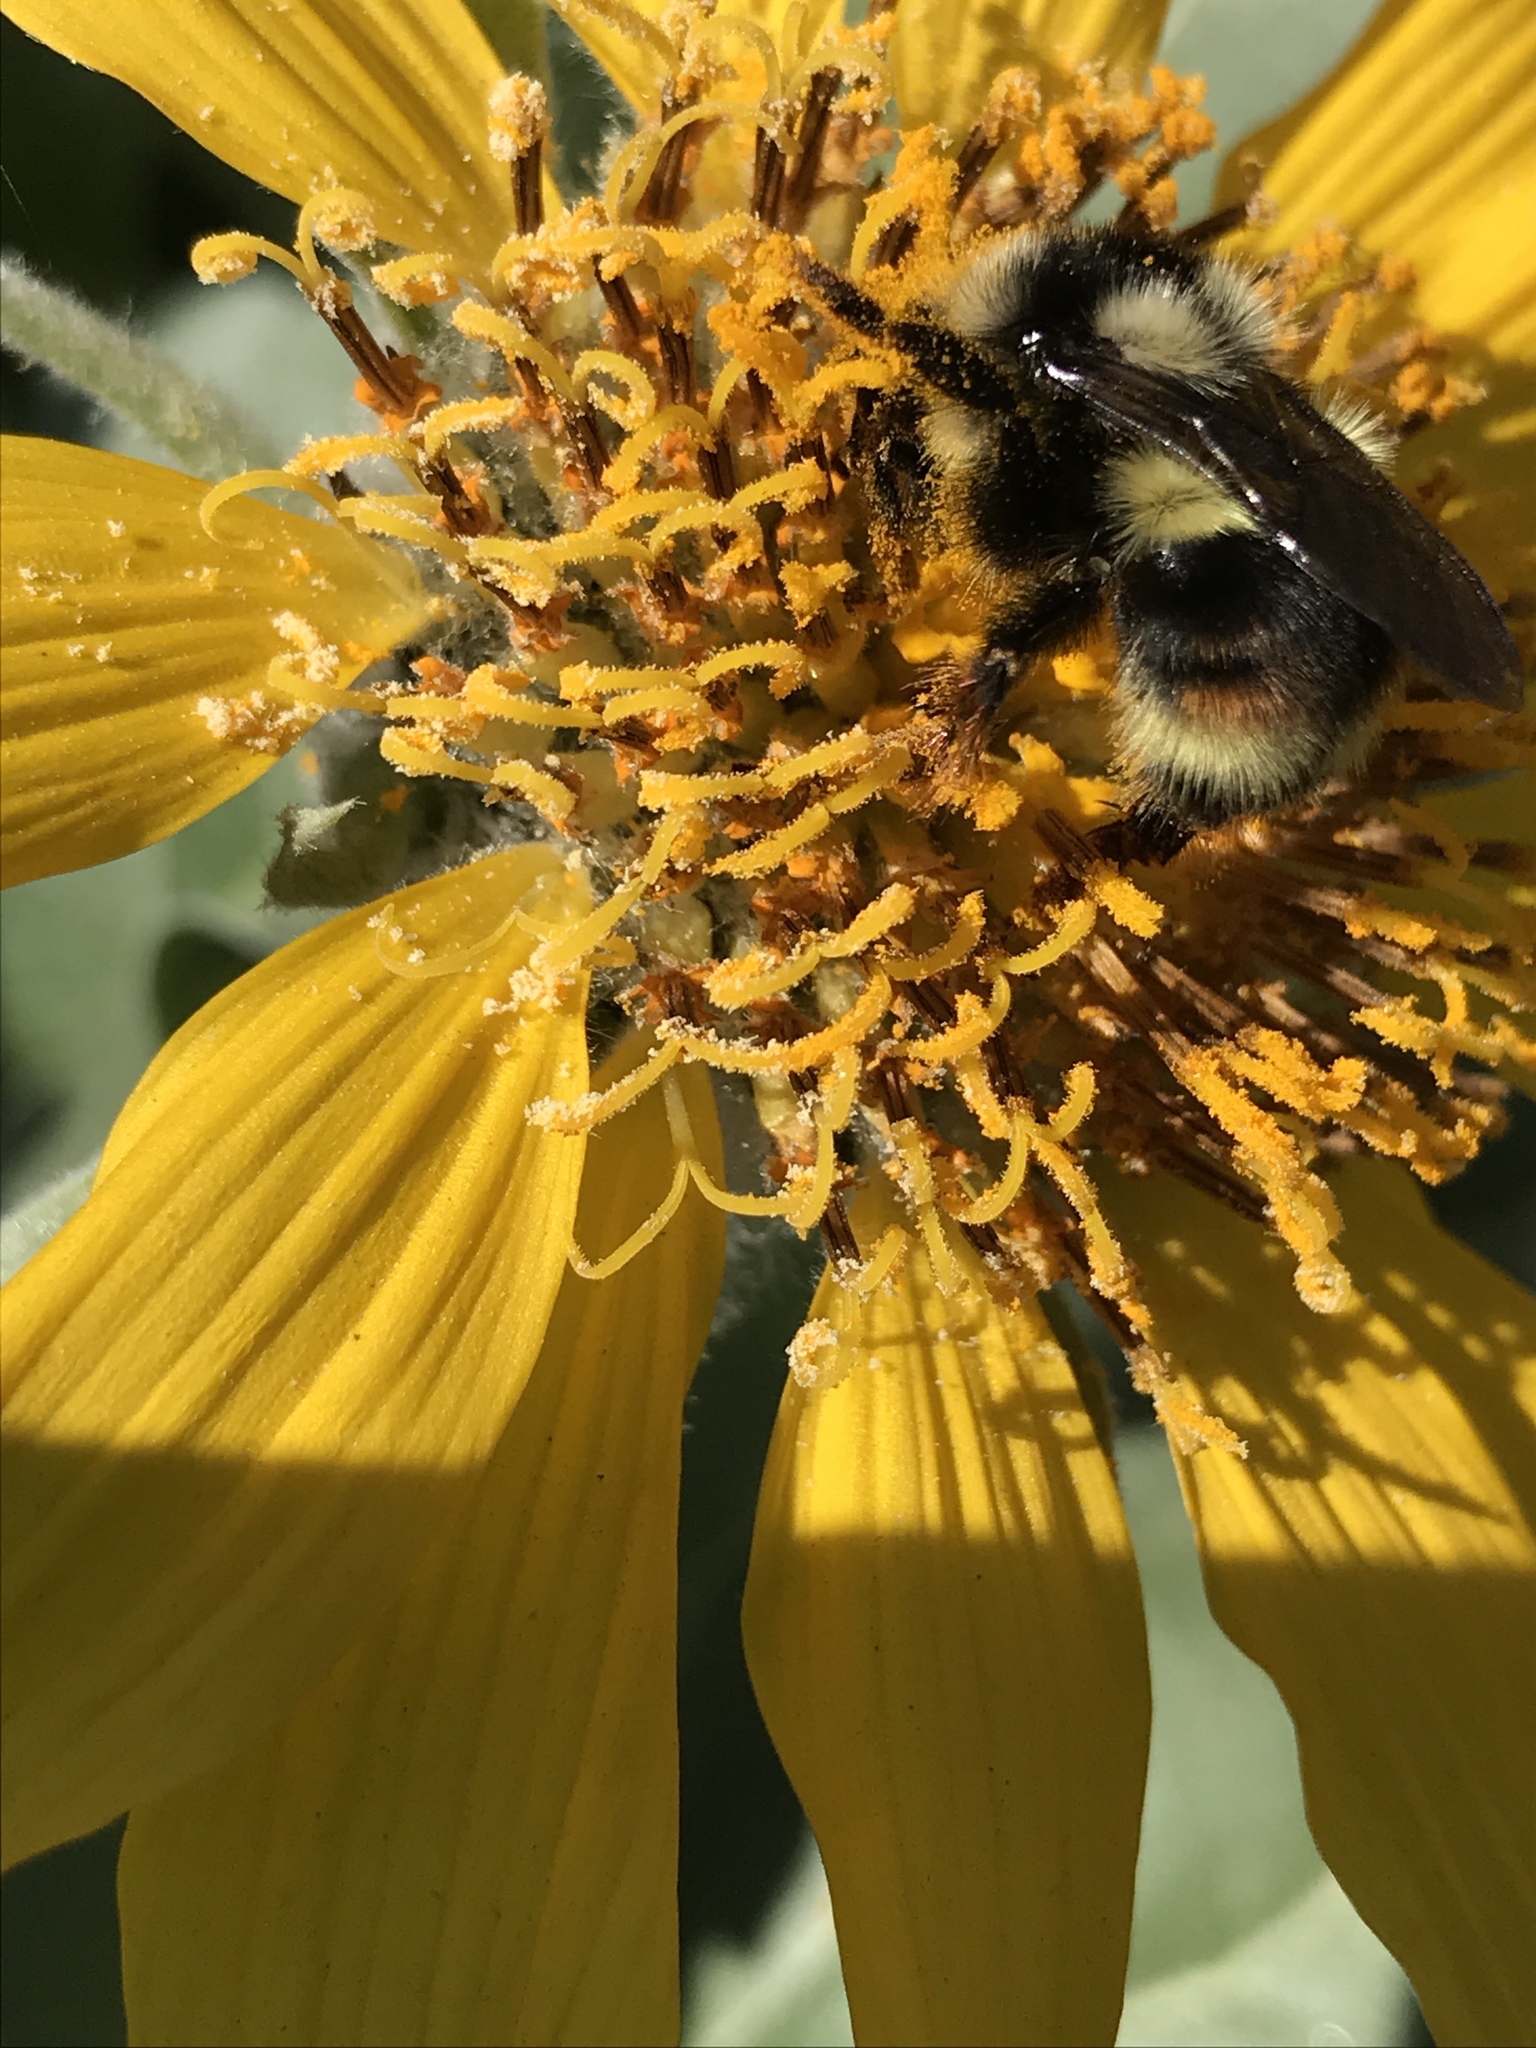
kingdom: Animalia
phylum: Arthropoda
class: Insecta
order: Hymenoptera
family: Apidae
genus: Bombus
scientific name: Bombus vancouverensis
